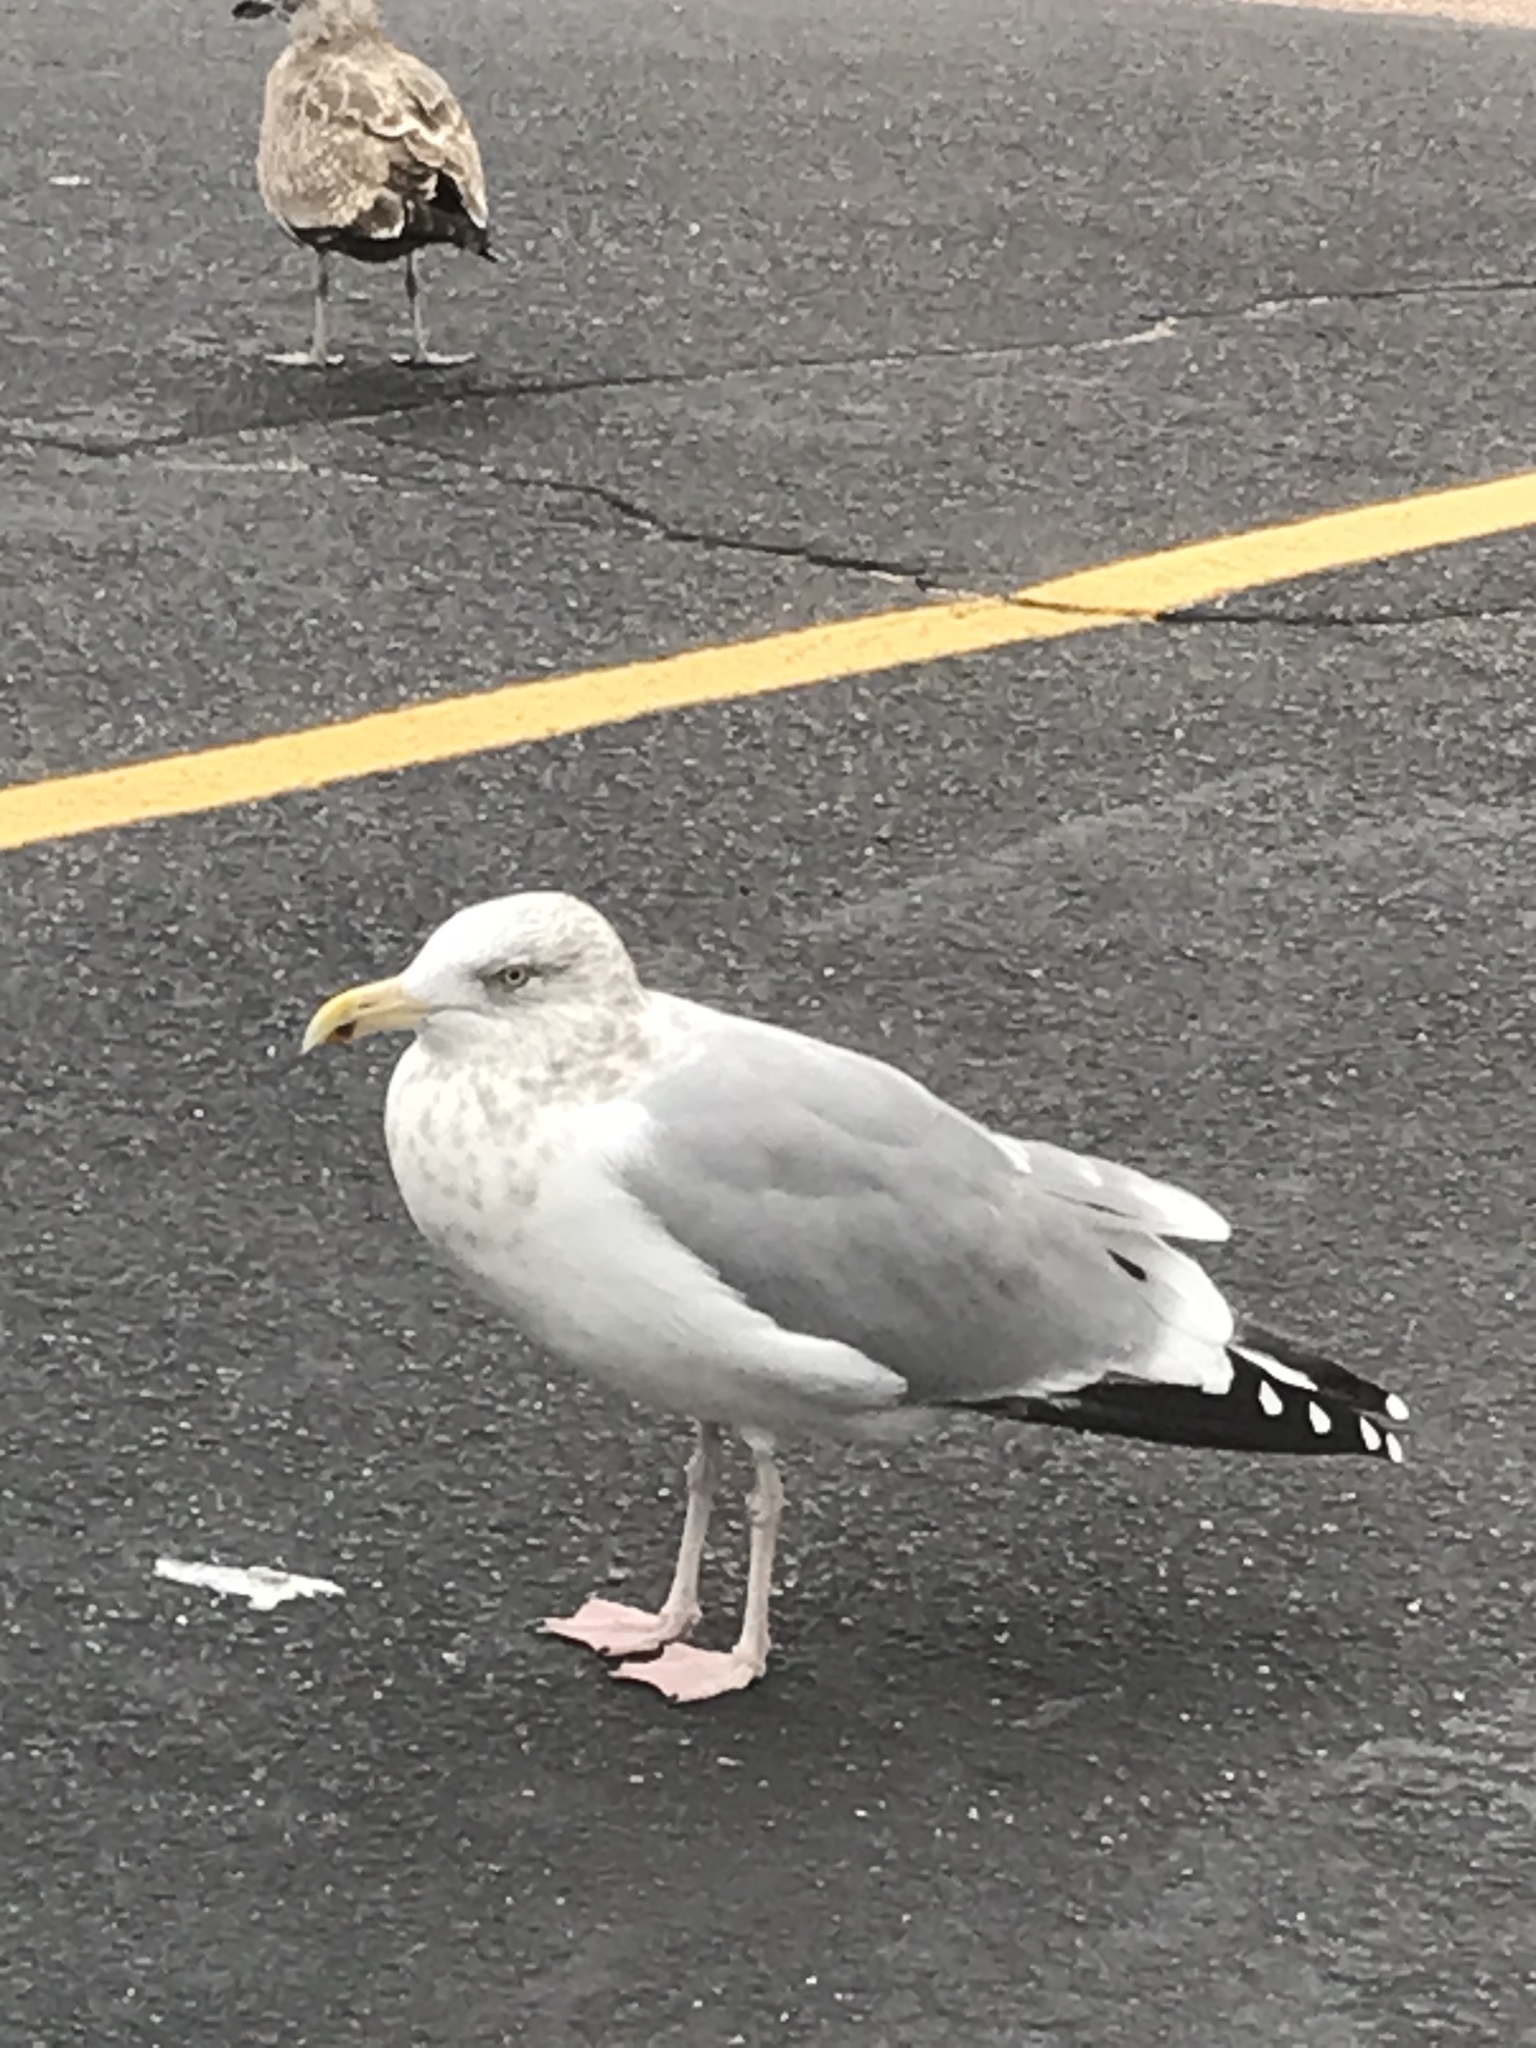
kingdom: Animalia
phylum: Chordata
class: Aves
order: Charadriiformes
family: Laridae
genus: Larus
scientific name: Larus argentatus
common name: Herring gull
